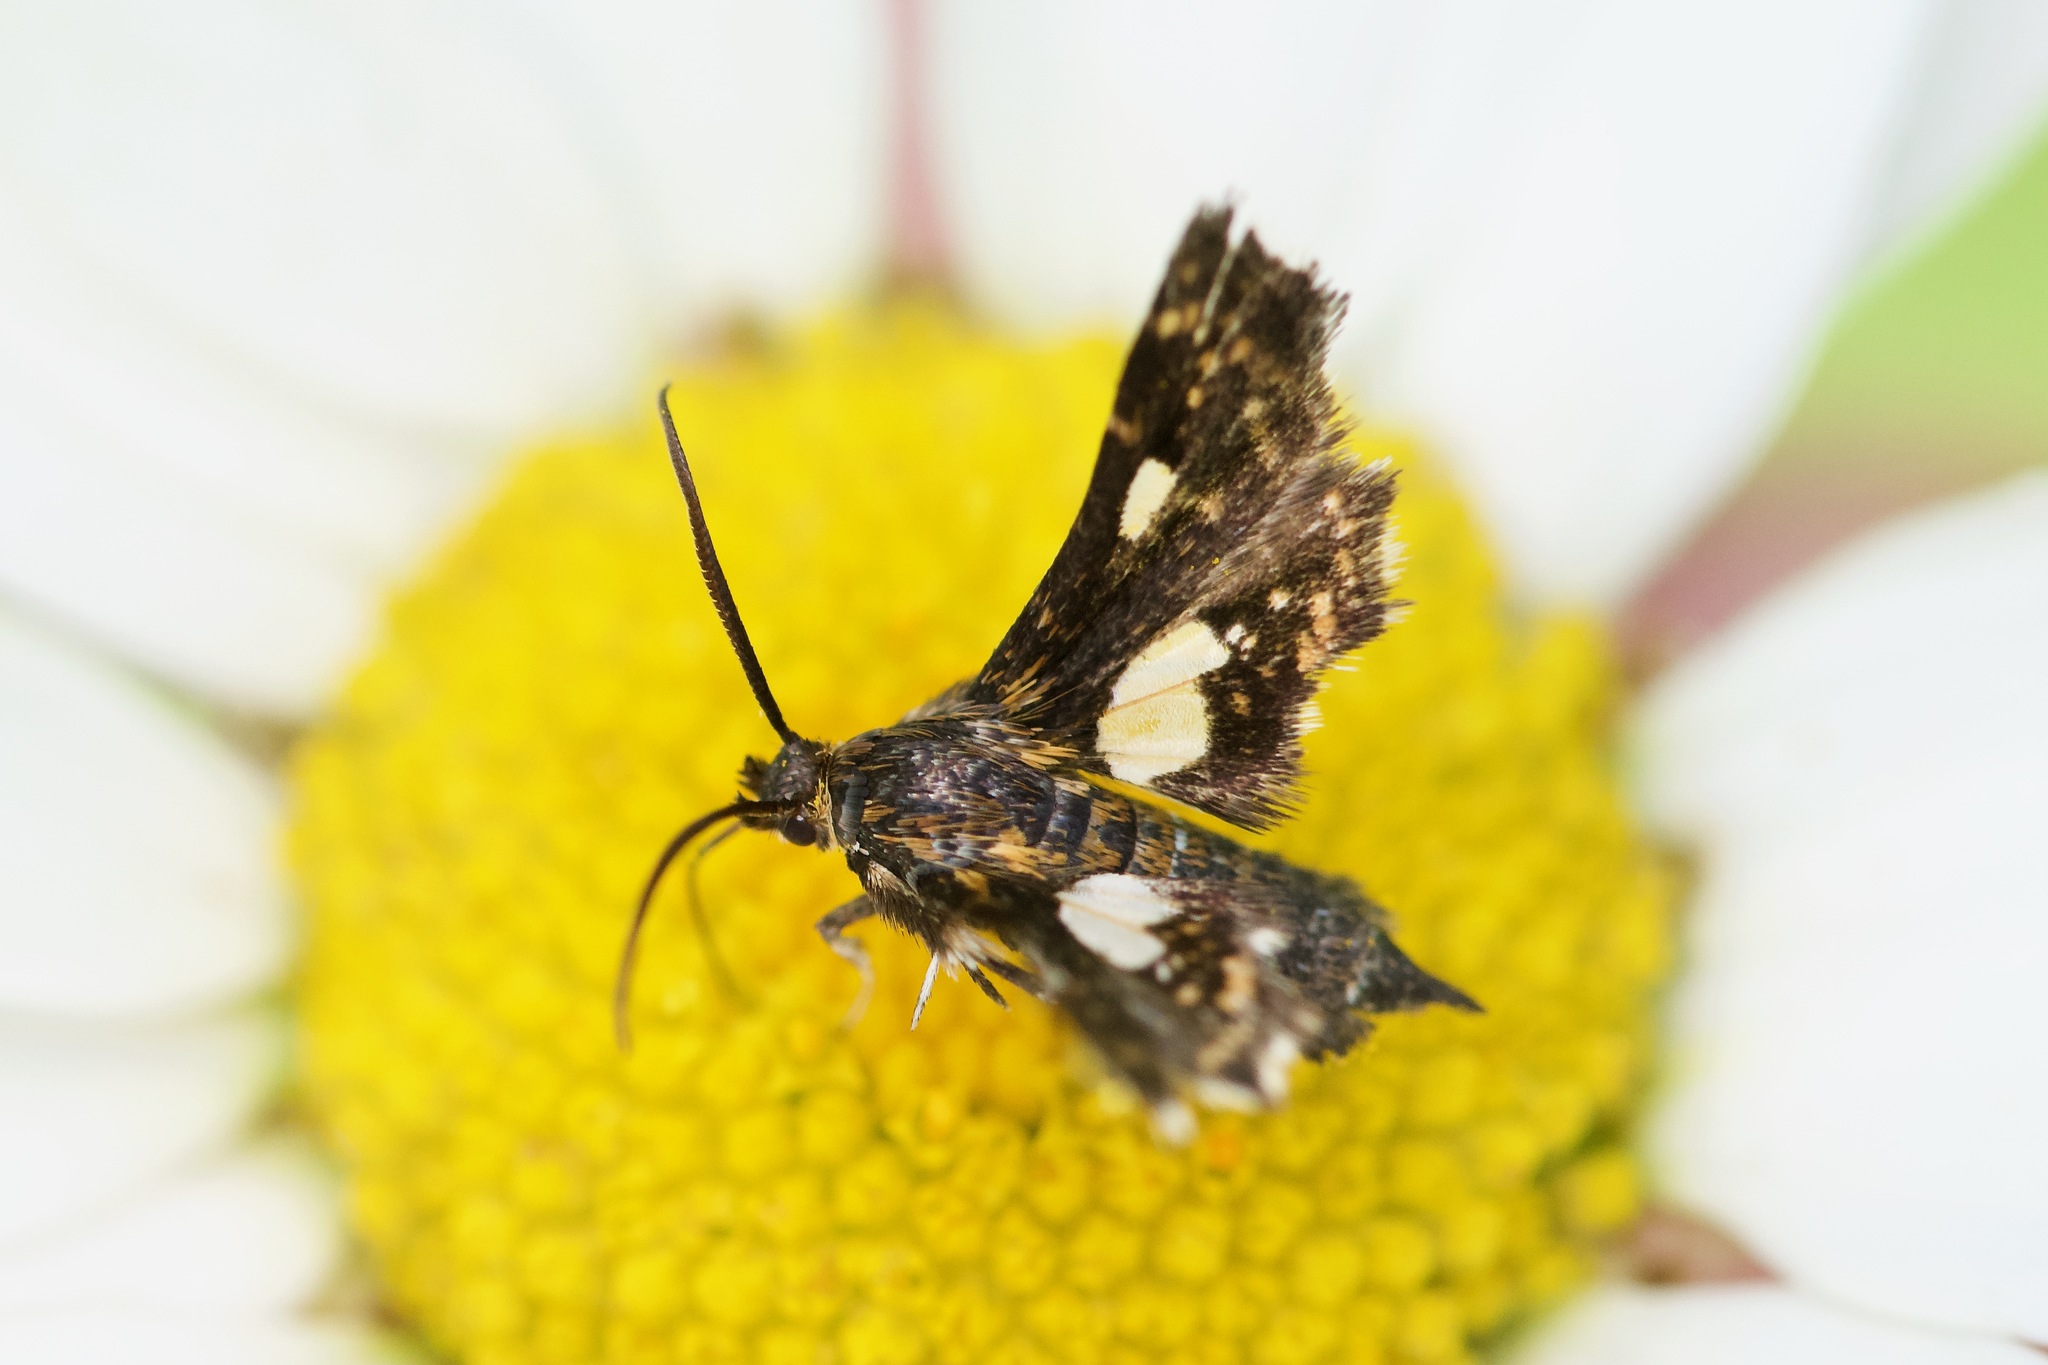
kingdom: Animalia
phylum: Arthropoda
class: Insecta
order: Lepidoptera
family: Thyrididae
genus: Thyris
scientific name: Thyris maculata
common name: Spotted thyris moth
